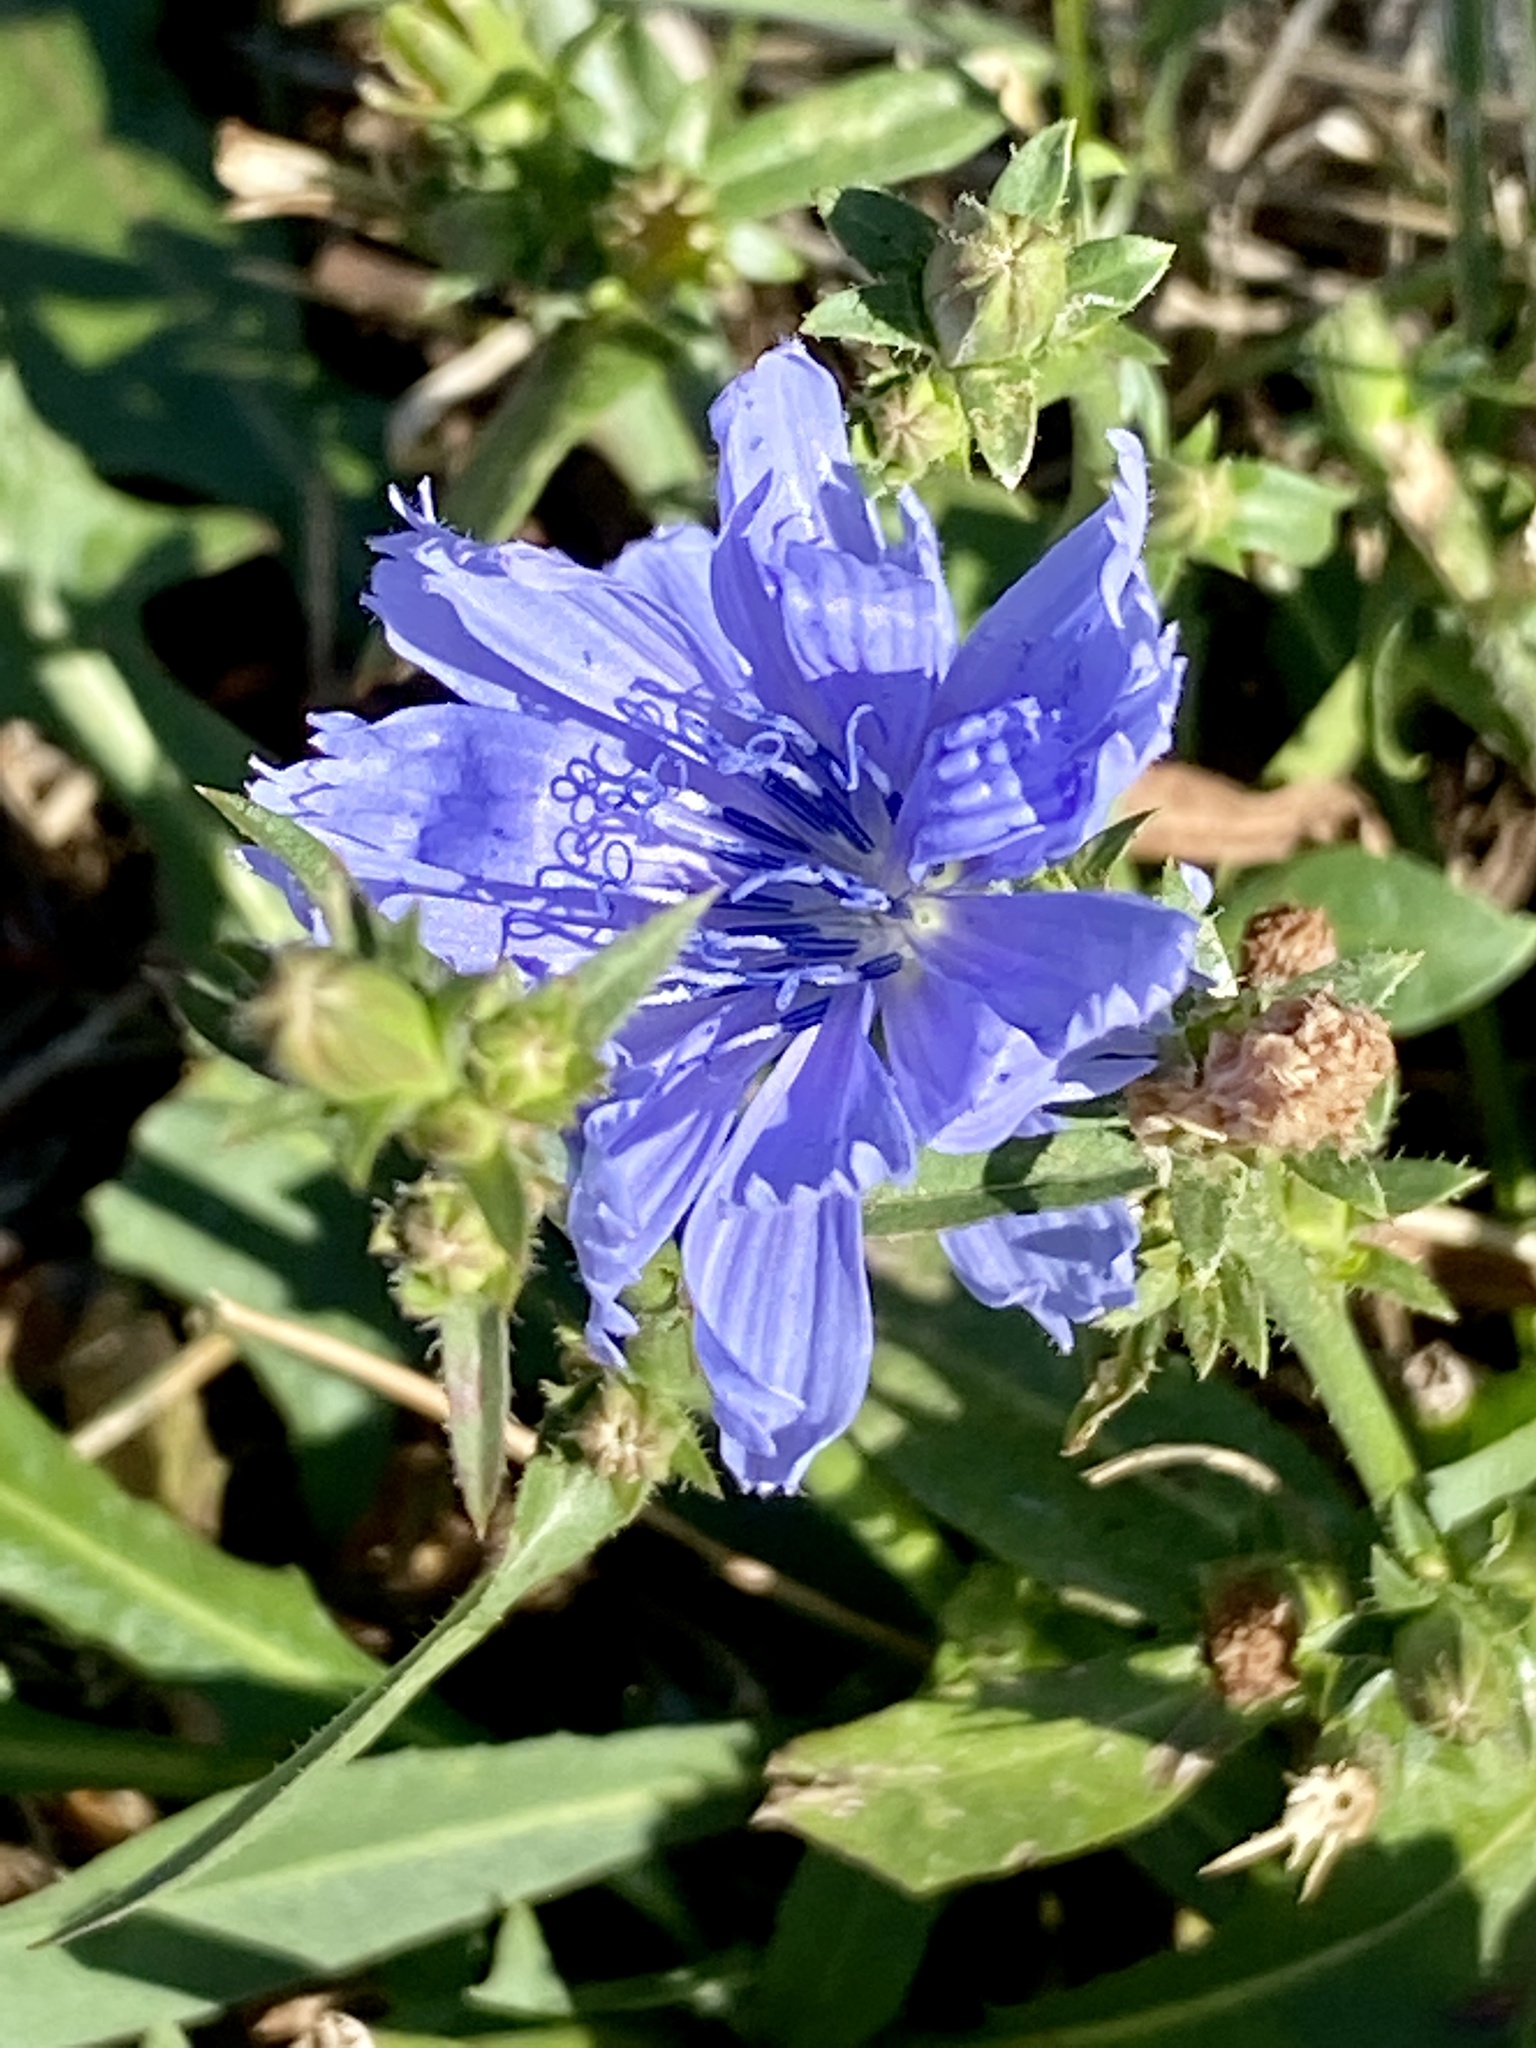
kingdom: Plantae
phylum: Tracheophyta
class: Magnoliopsida
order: Asterales
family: Asteraceae
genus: Cichorium
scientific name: Cichorium intybus
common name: Chicory
